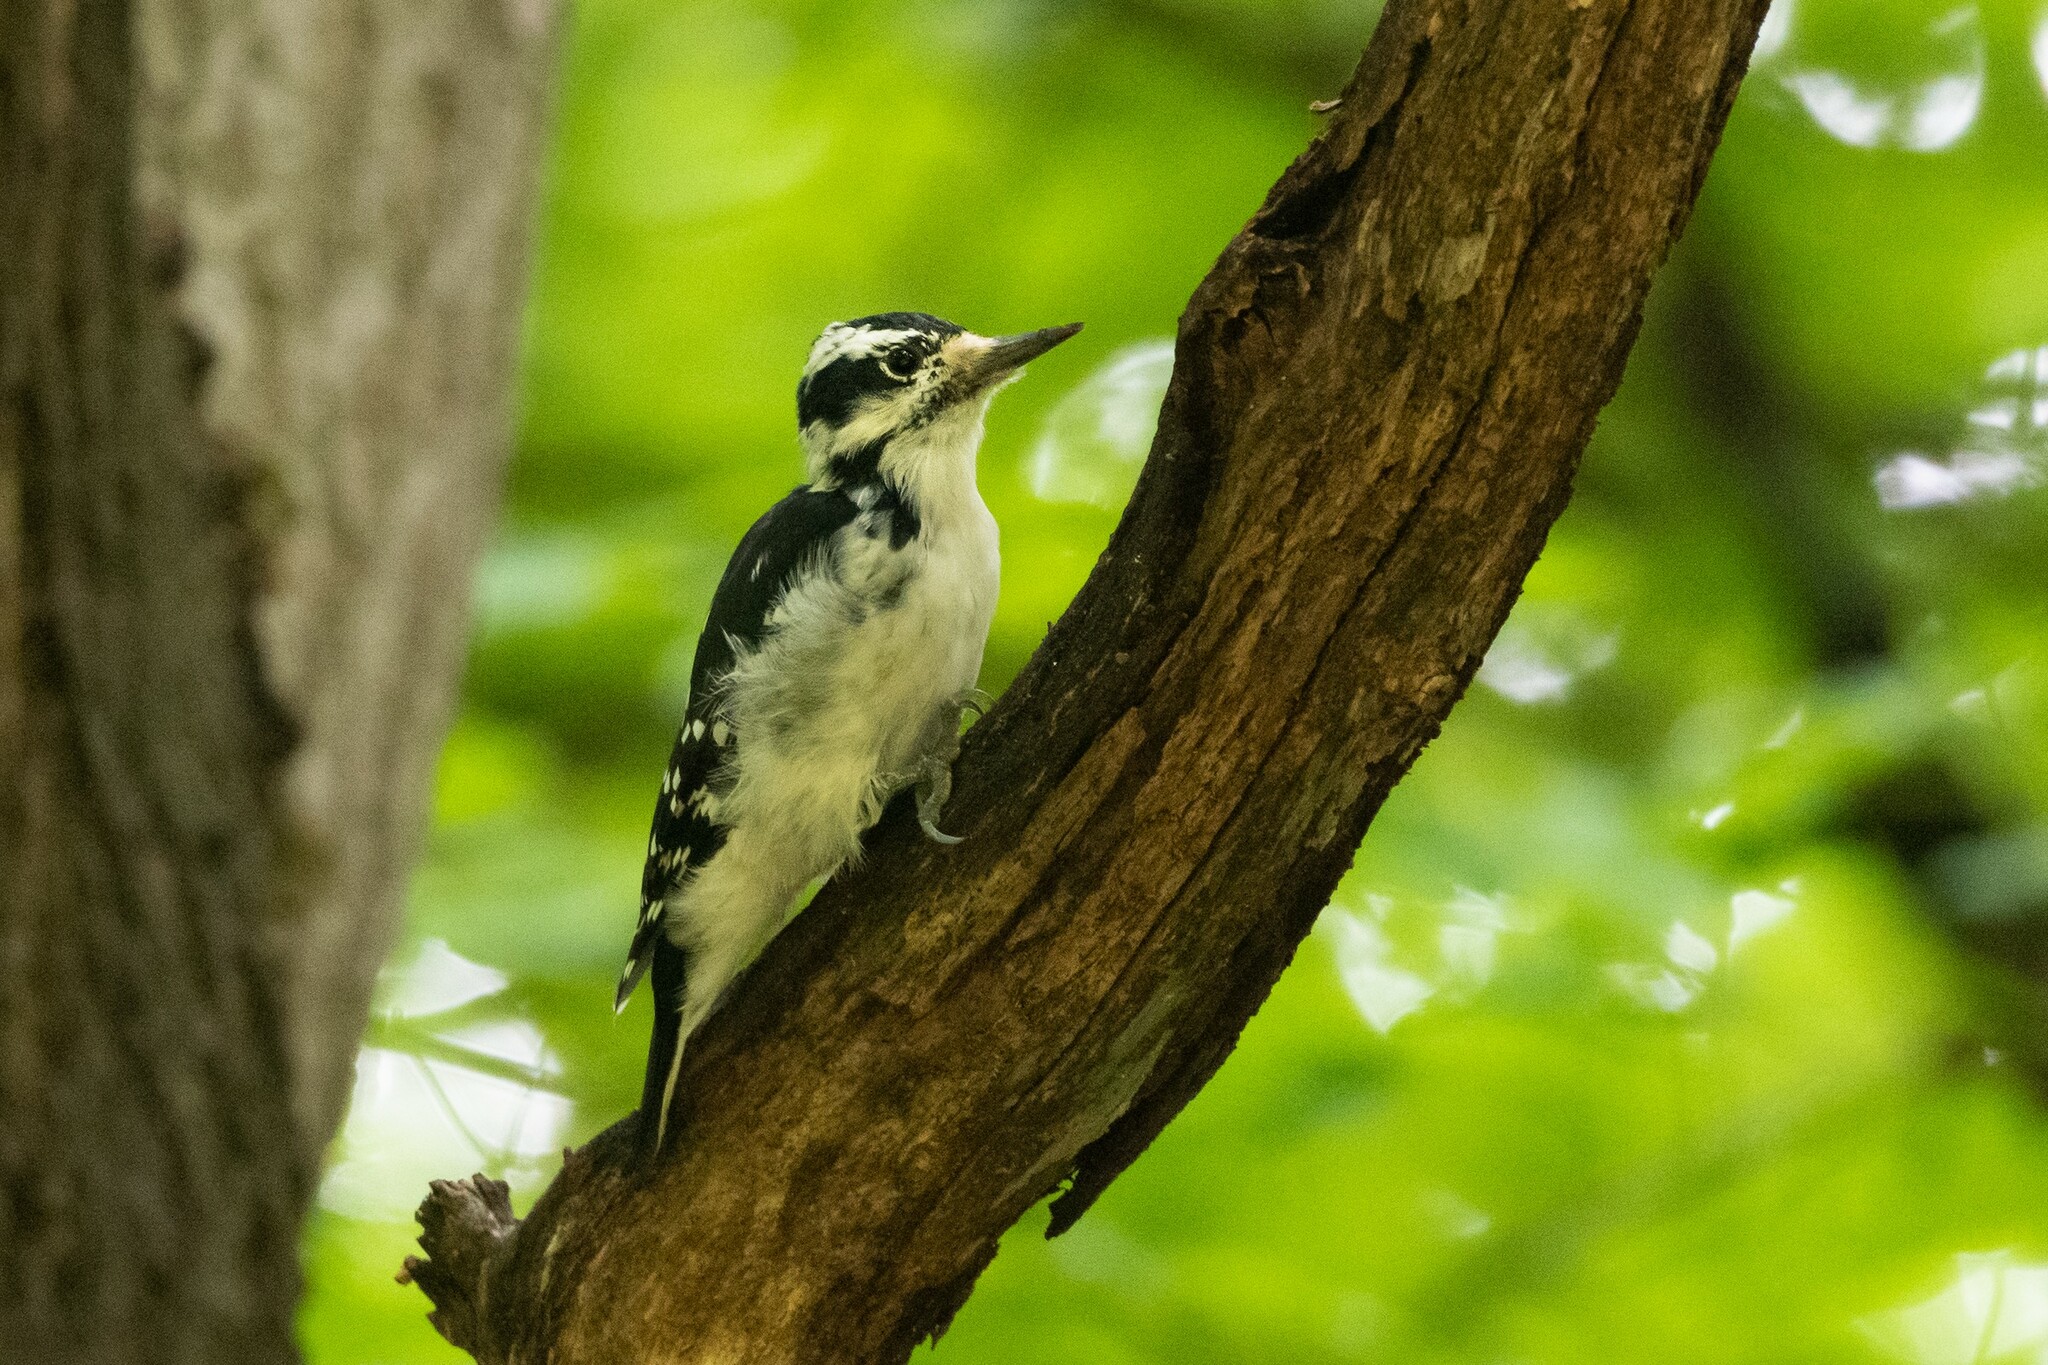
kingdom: Animalia
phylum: Chordata
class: Aves
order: Piciformes
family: Picidae
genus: Leuconotopicus
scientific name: Leuconotopicus villosus
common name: Hairy woodpecker
